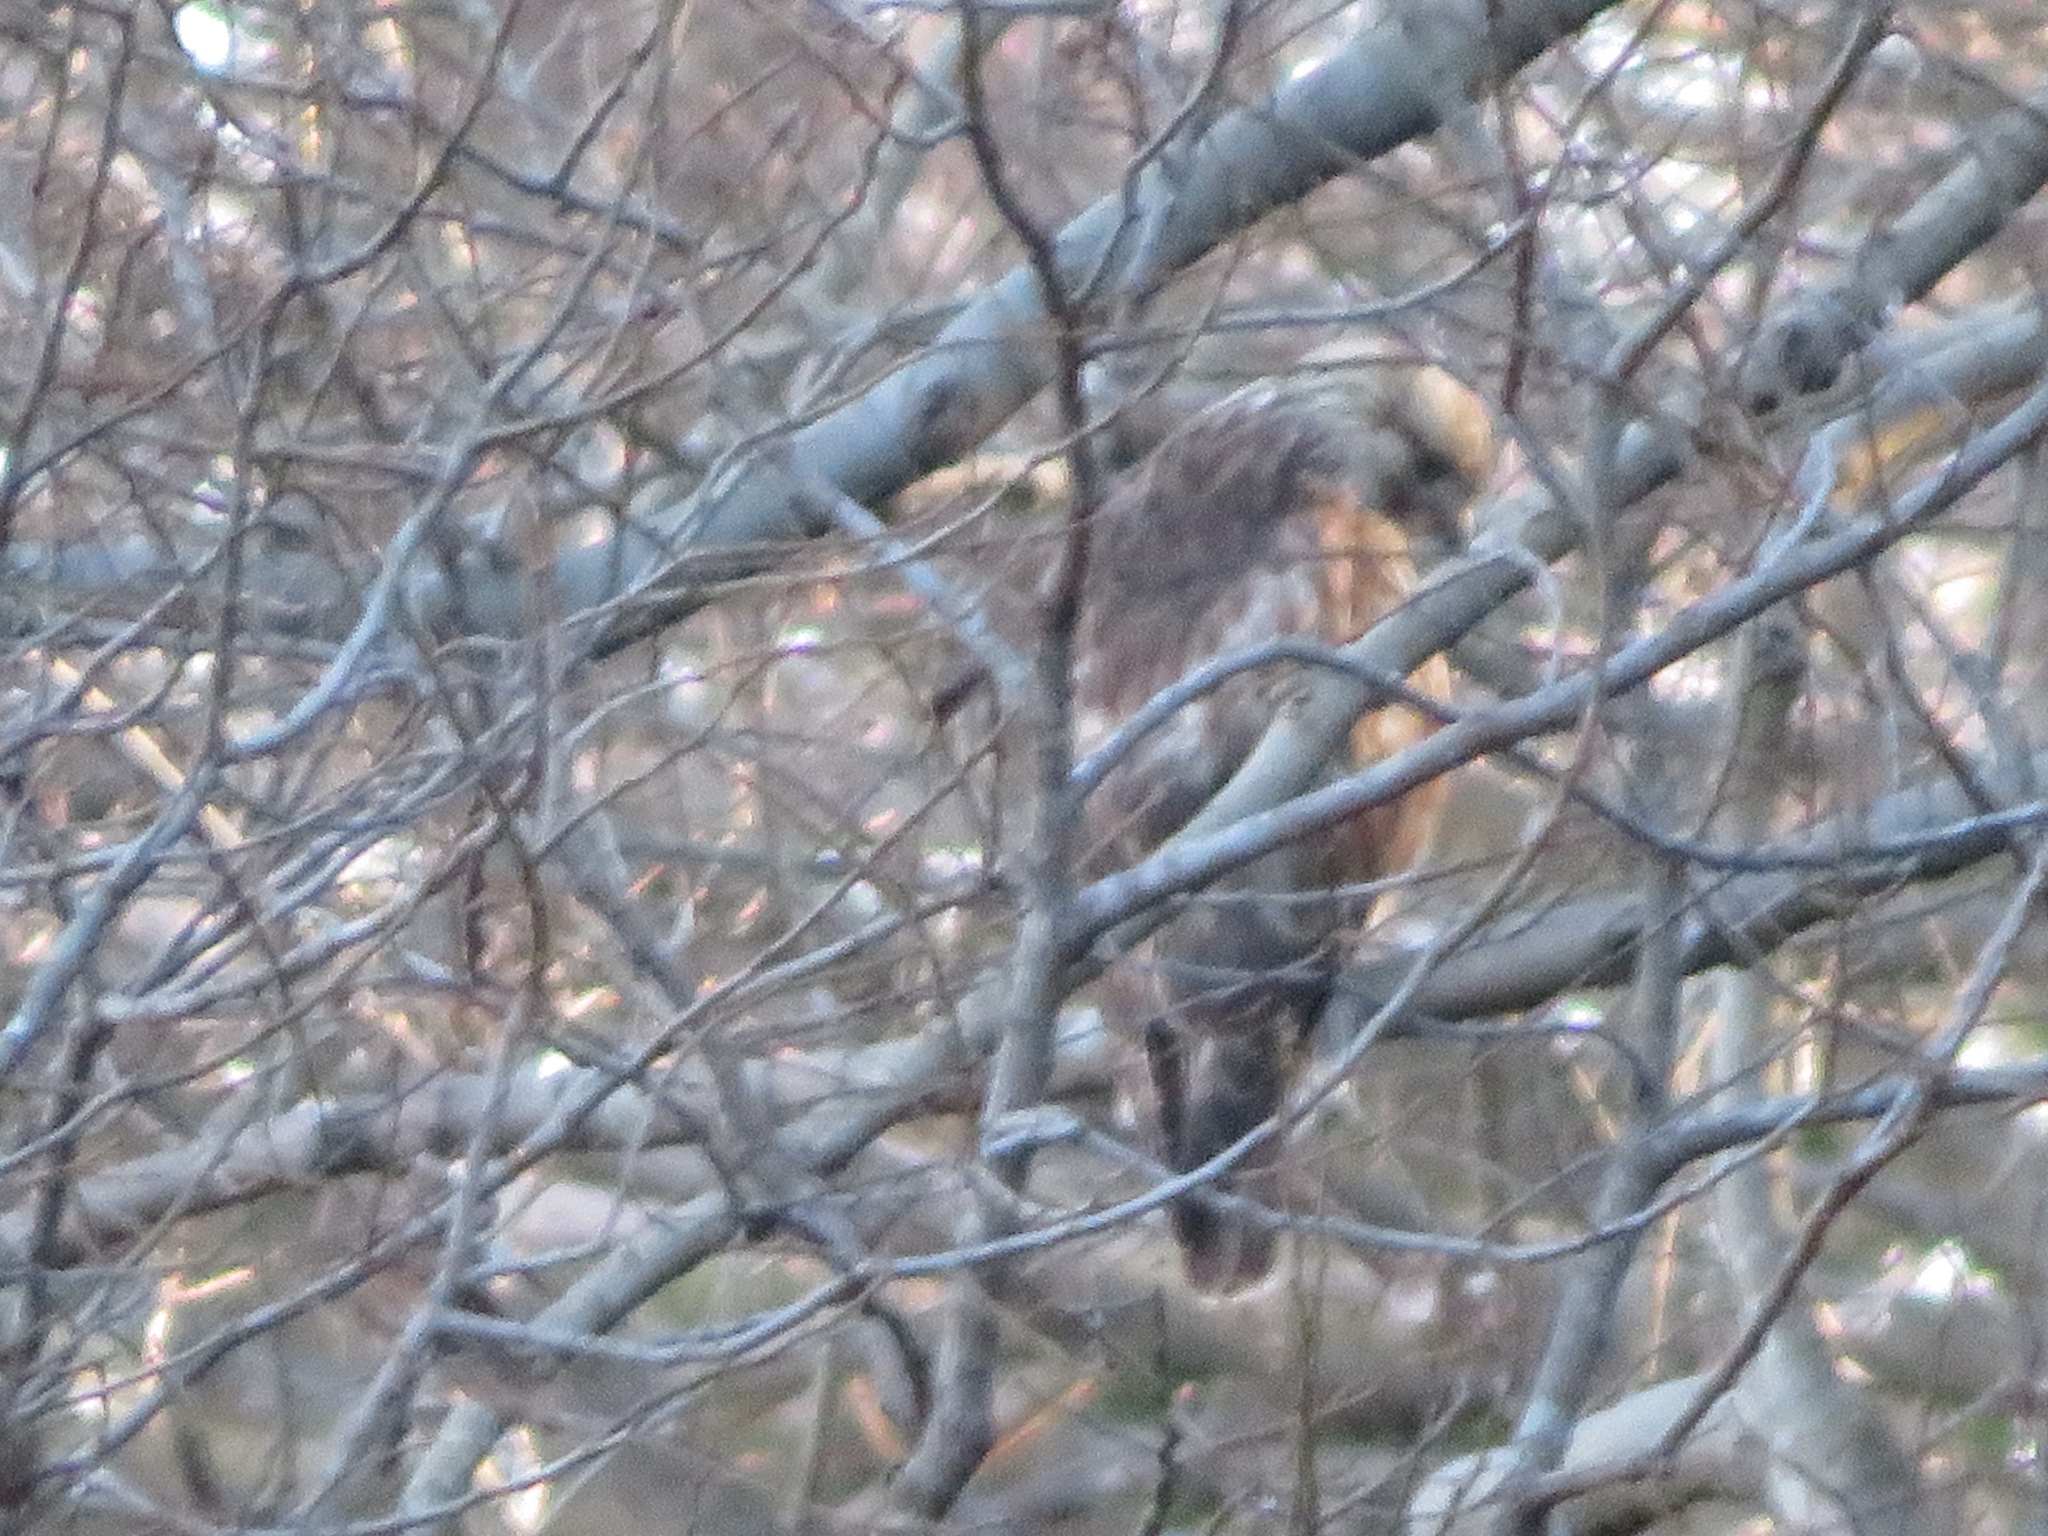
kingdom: Animalia
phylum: Chordata
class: Aves
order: Accipitriformes
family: Accipitridae
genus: Buteo
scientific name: Buteo japonicus
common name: Eastern buzzard
